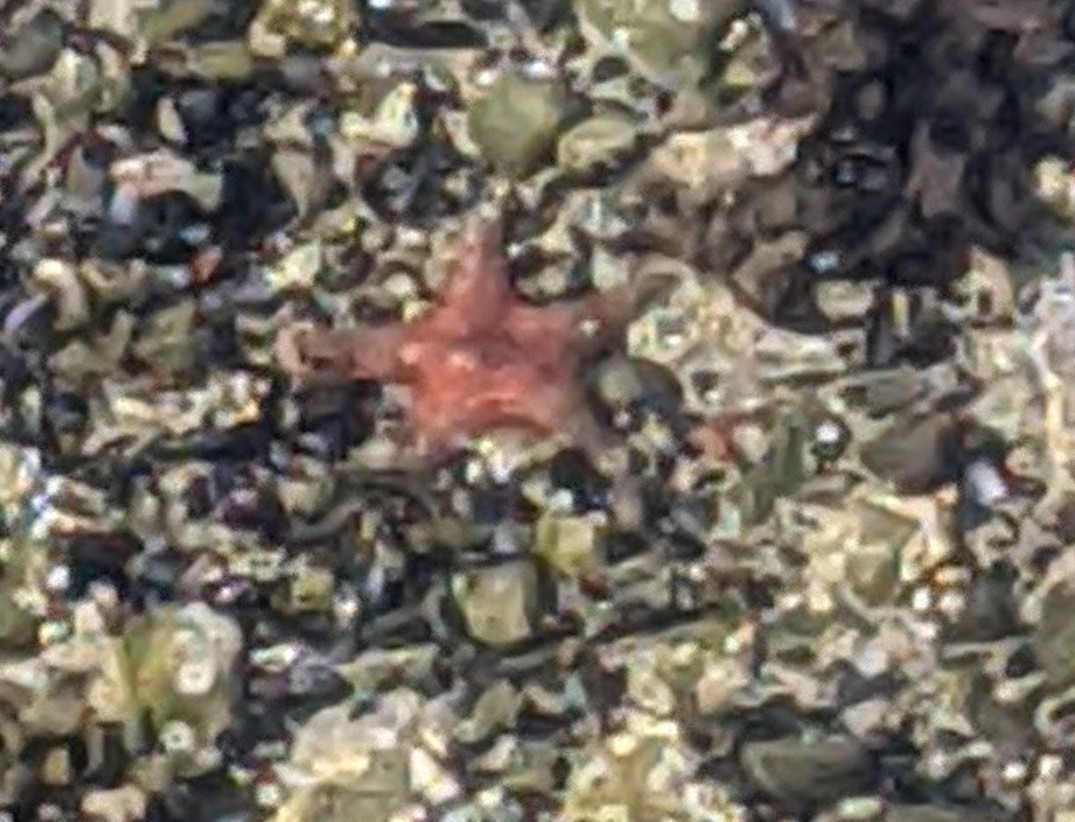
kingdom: Animalia
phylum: Echinodermata
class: Asteroidea
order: Valvatida
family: Asteropseidae
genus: Dermasterias
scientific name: Dermasterias imbricata
